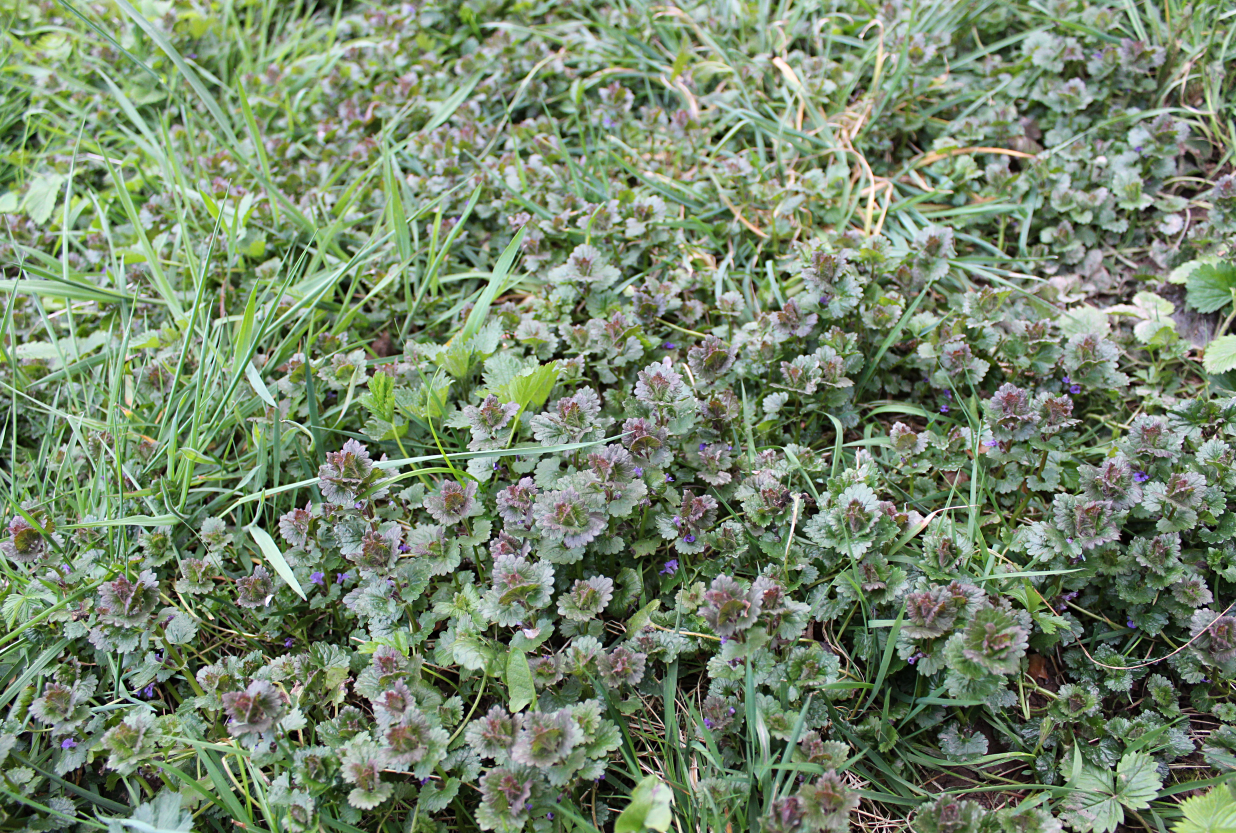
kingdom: Plantae
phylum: Tracheophyta
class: Magnoliopsida
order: Lamiales
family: Lamiaceae
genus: Glechoma
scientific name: Glechoma hederacea
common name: Ground ivy
